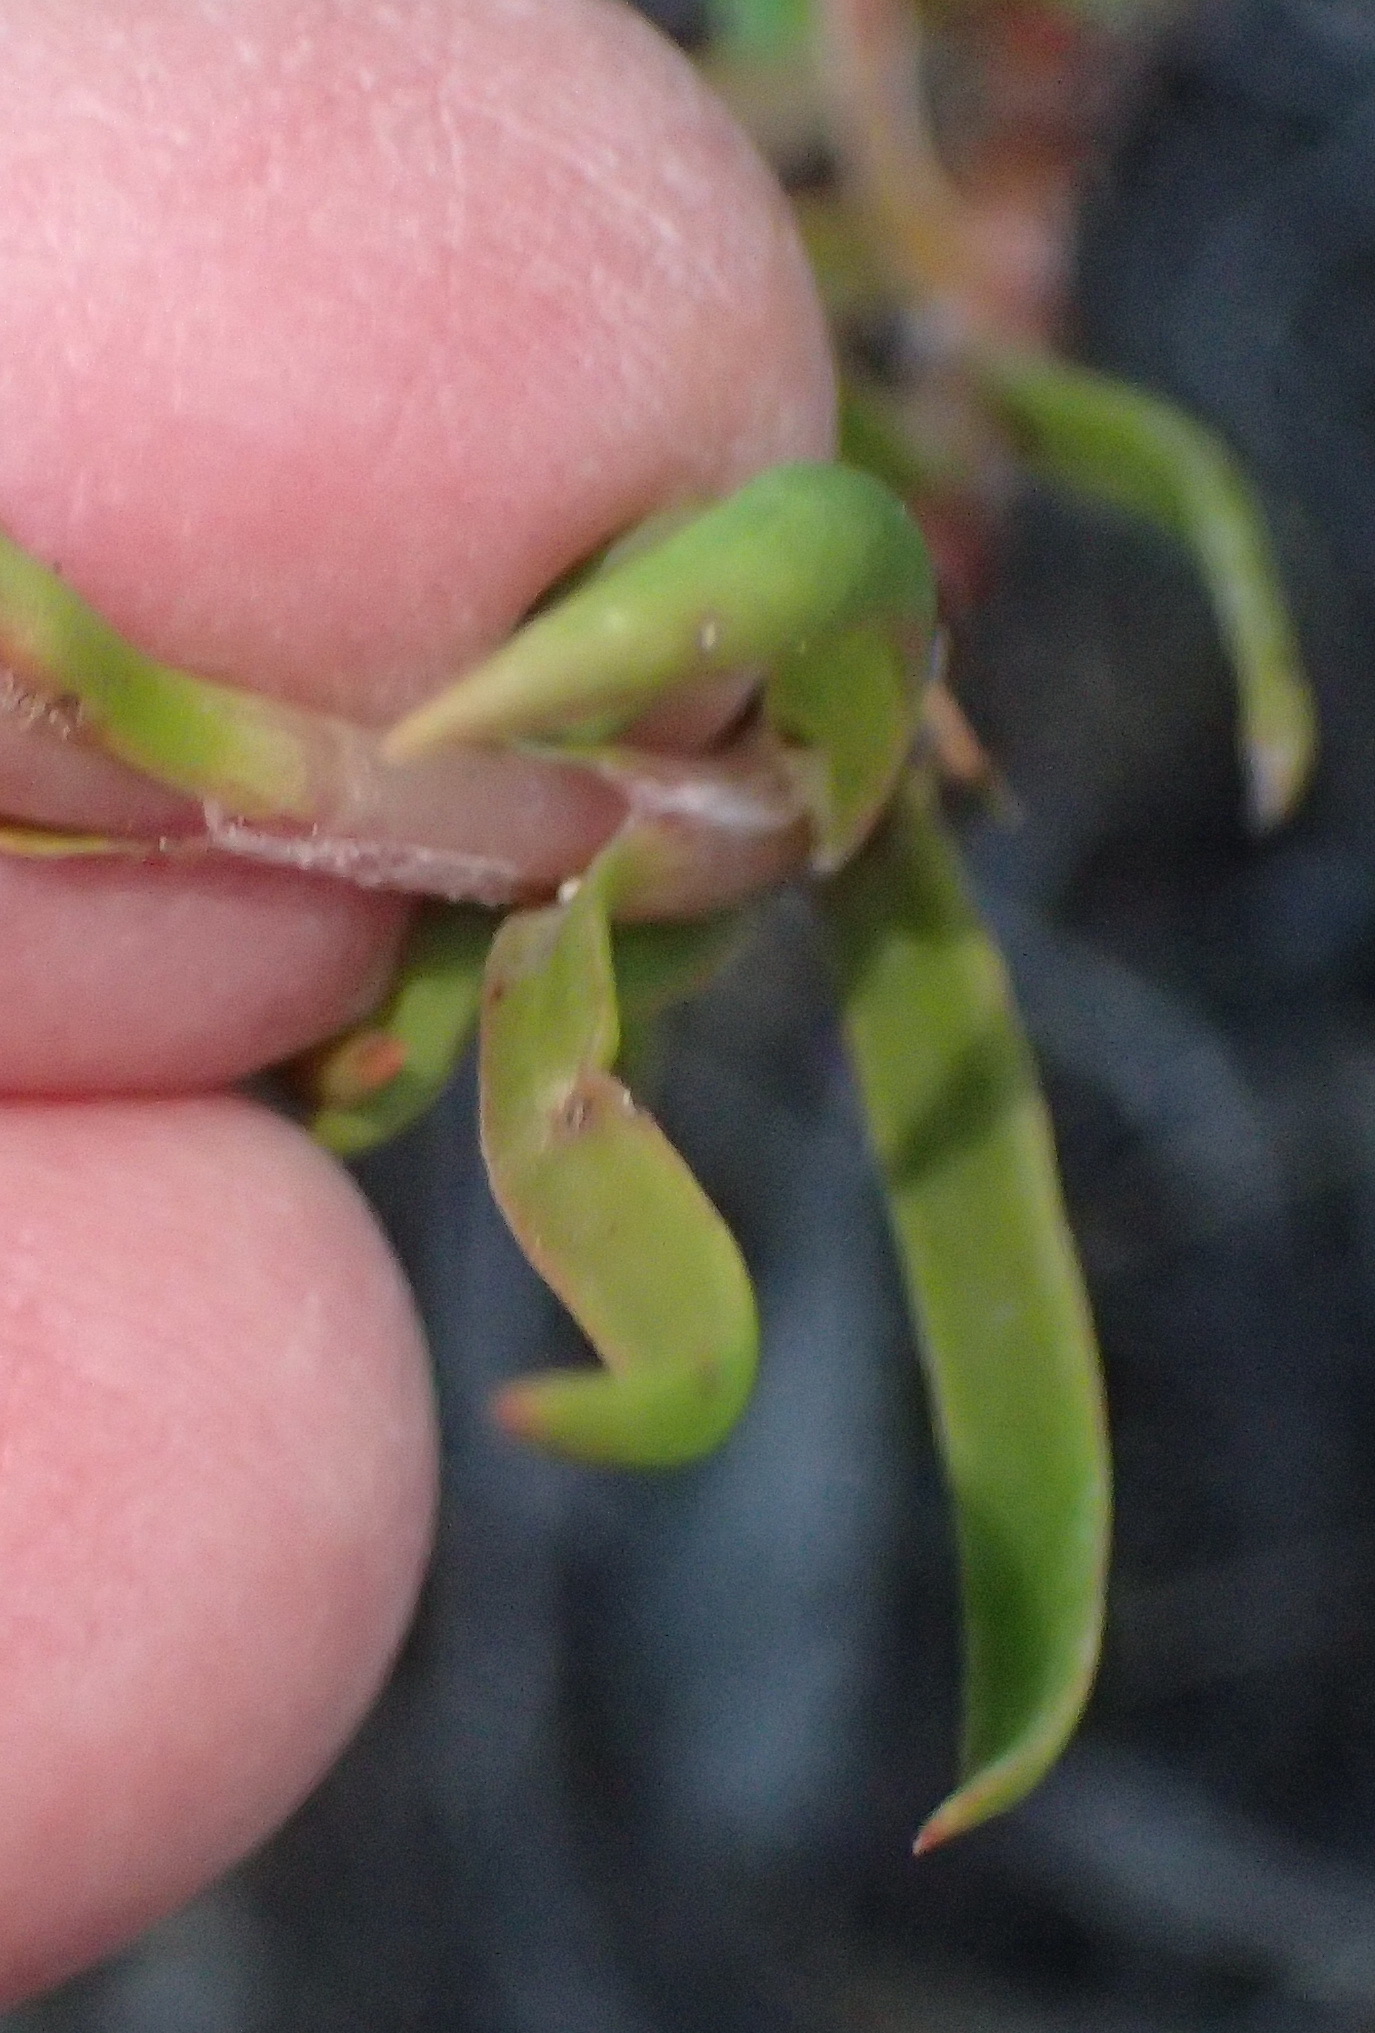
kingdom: Plantae
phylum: Tracheophyta
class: Magnoliopsida
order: Saxifragales
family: Crassulaceae
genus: Crassula
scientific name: Crassula subulata
